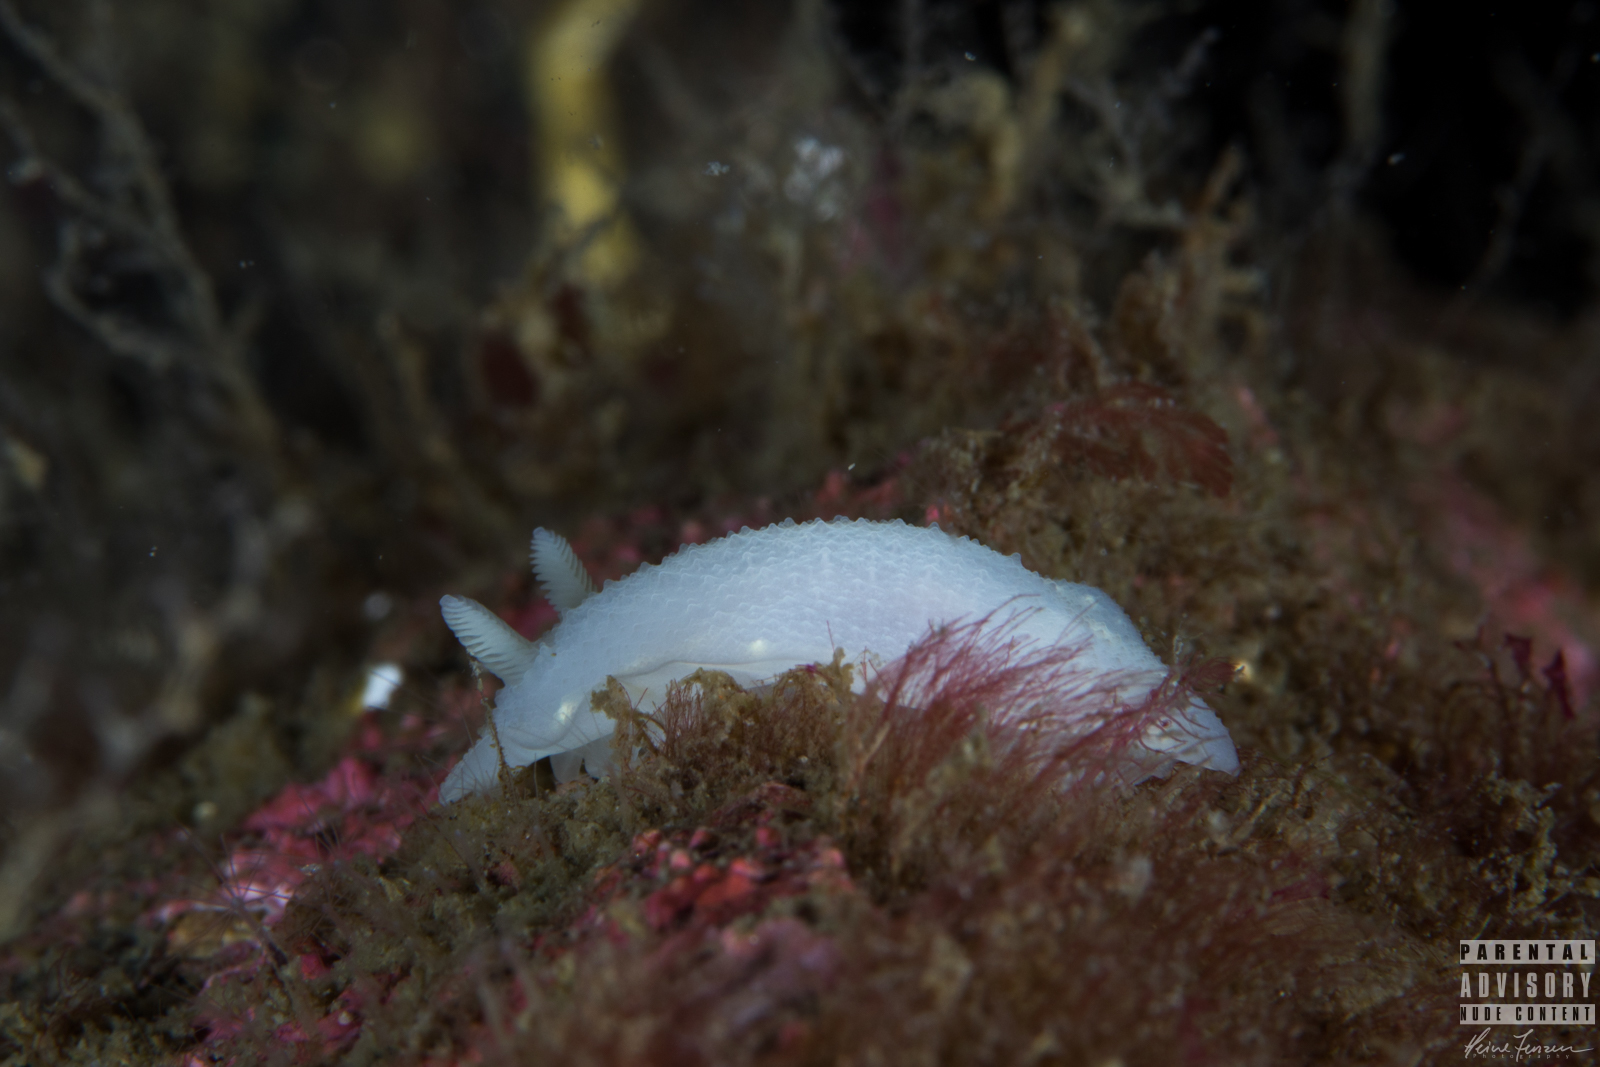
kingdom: Animalia
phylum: Mollusca
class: Gastropoda
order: Nudibranchia
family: Cadlinidae
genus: Cadlina
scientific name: Cadlina laevis
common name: White atlantic cadlina
